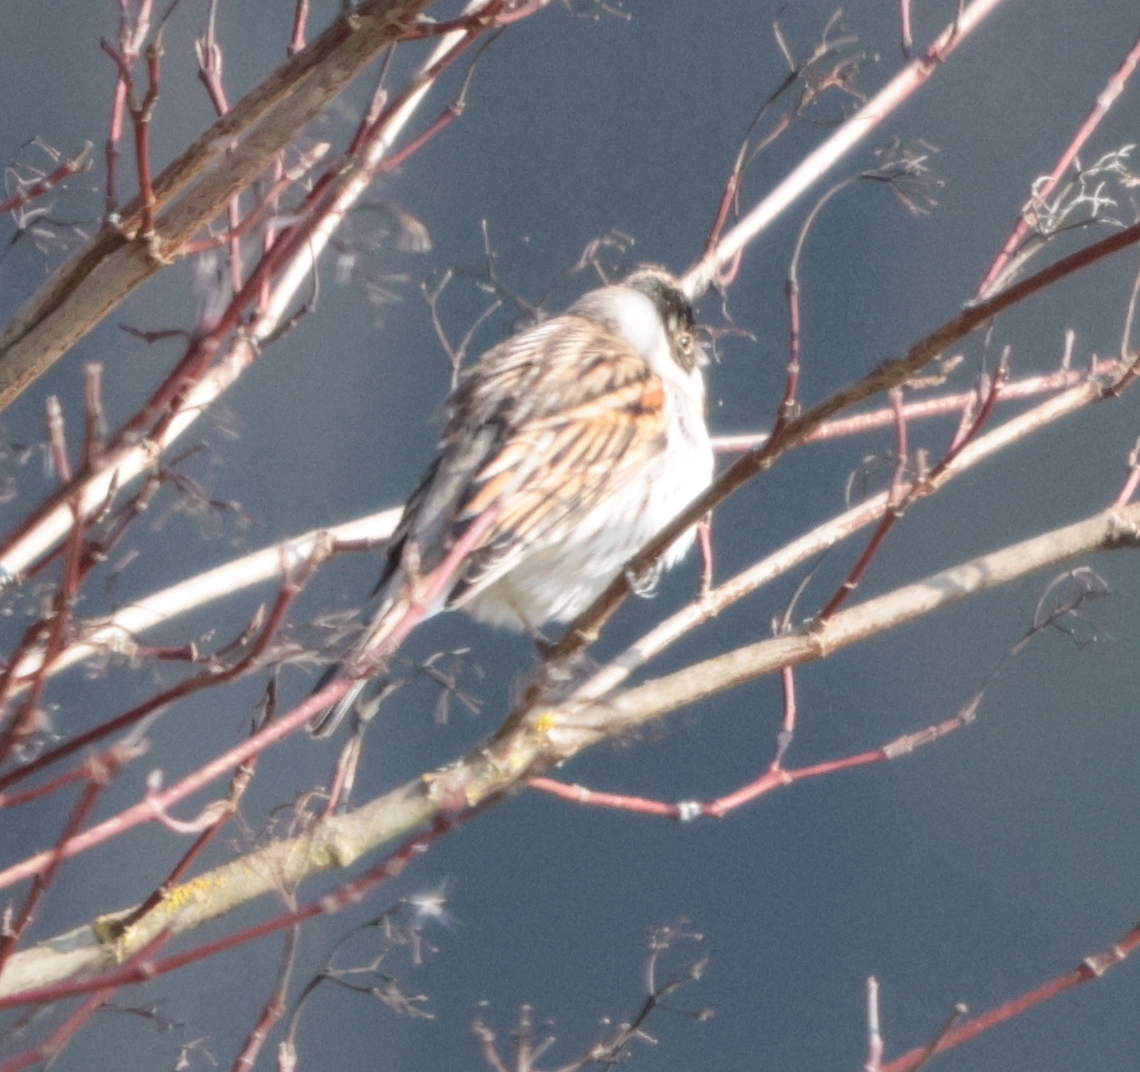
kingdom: Animalia
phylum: Chordata
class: Aves
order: Passeriformes
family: Emberizidae
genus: Emberiza
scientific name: Emberiza schoeniclus
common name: Reed bunting
